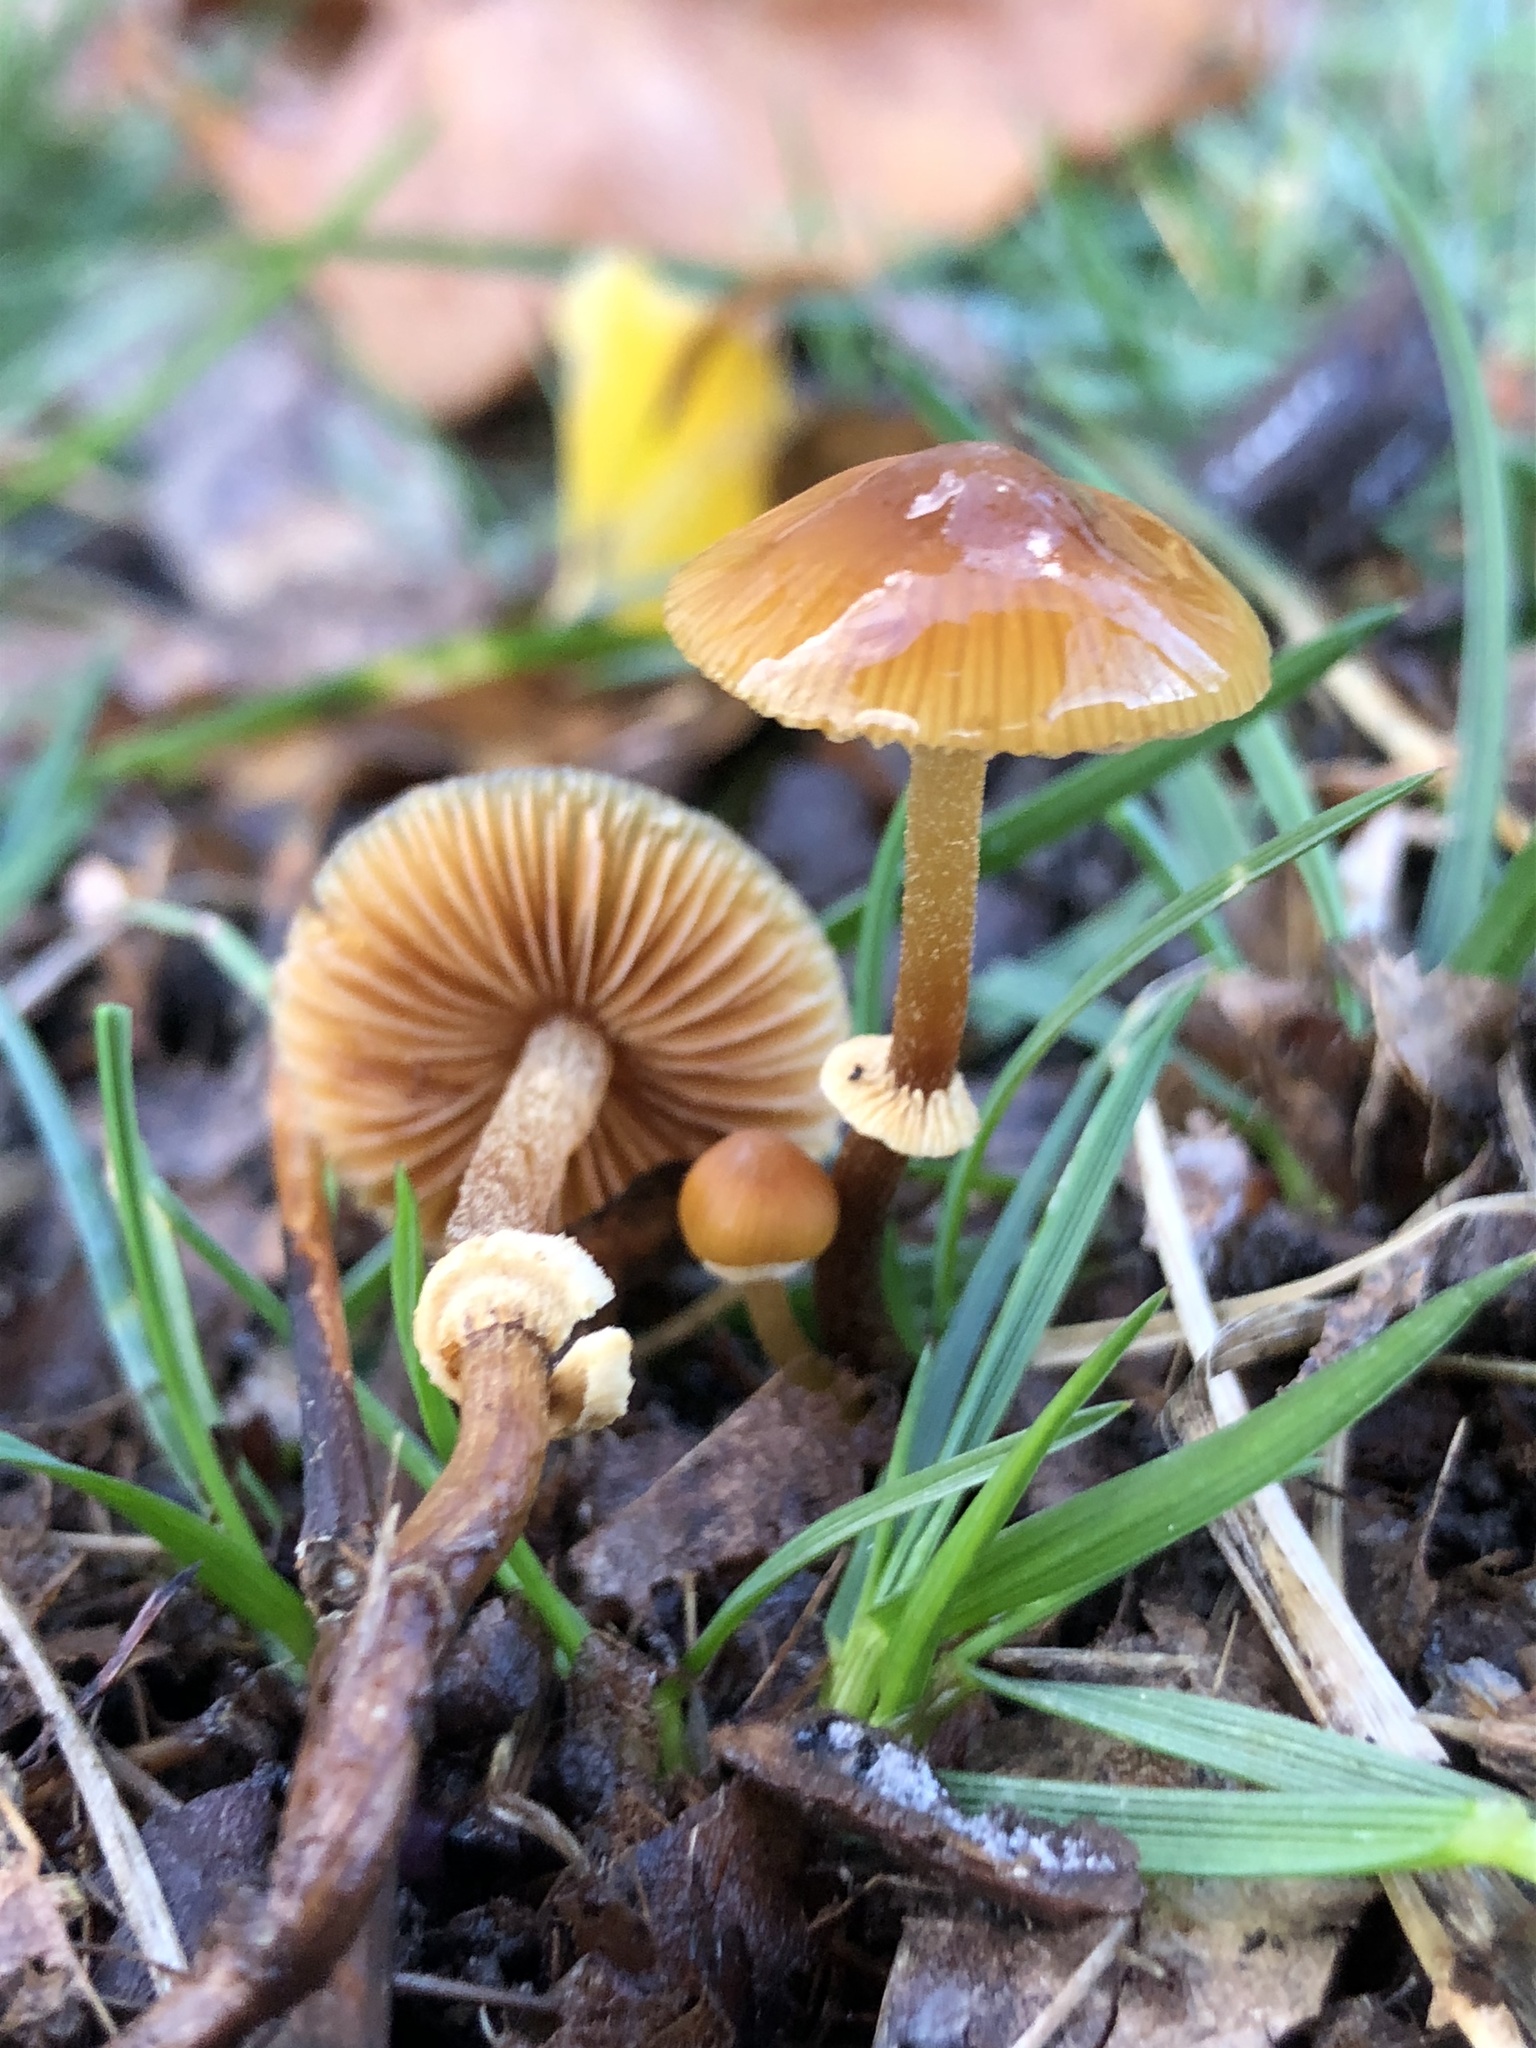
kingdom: Fungi
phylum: Basidiomycota
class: Agaricomycetes
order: Agaricales
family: Bolbitiaceae
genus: Conocybe
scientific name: Conocybe rugosa
